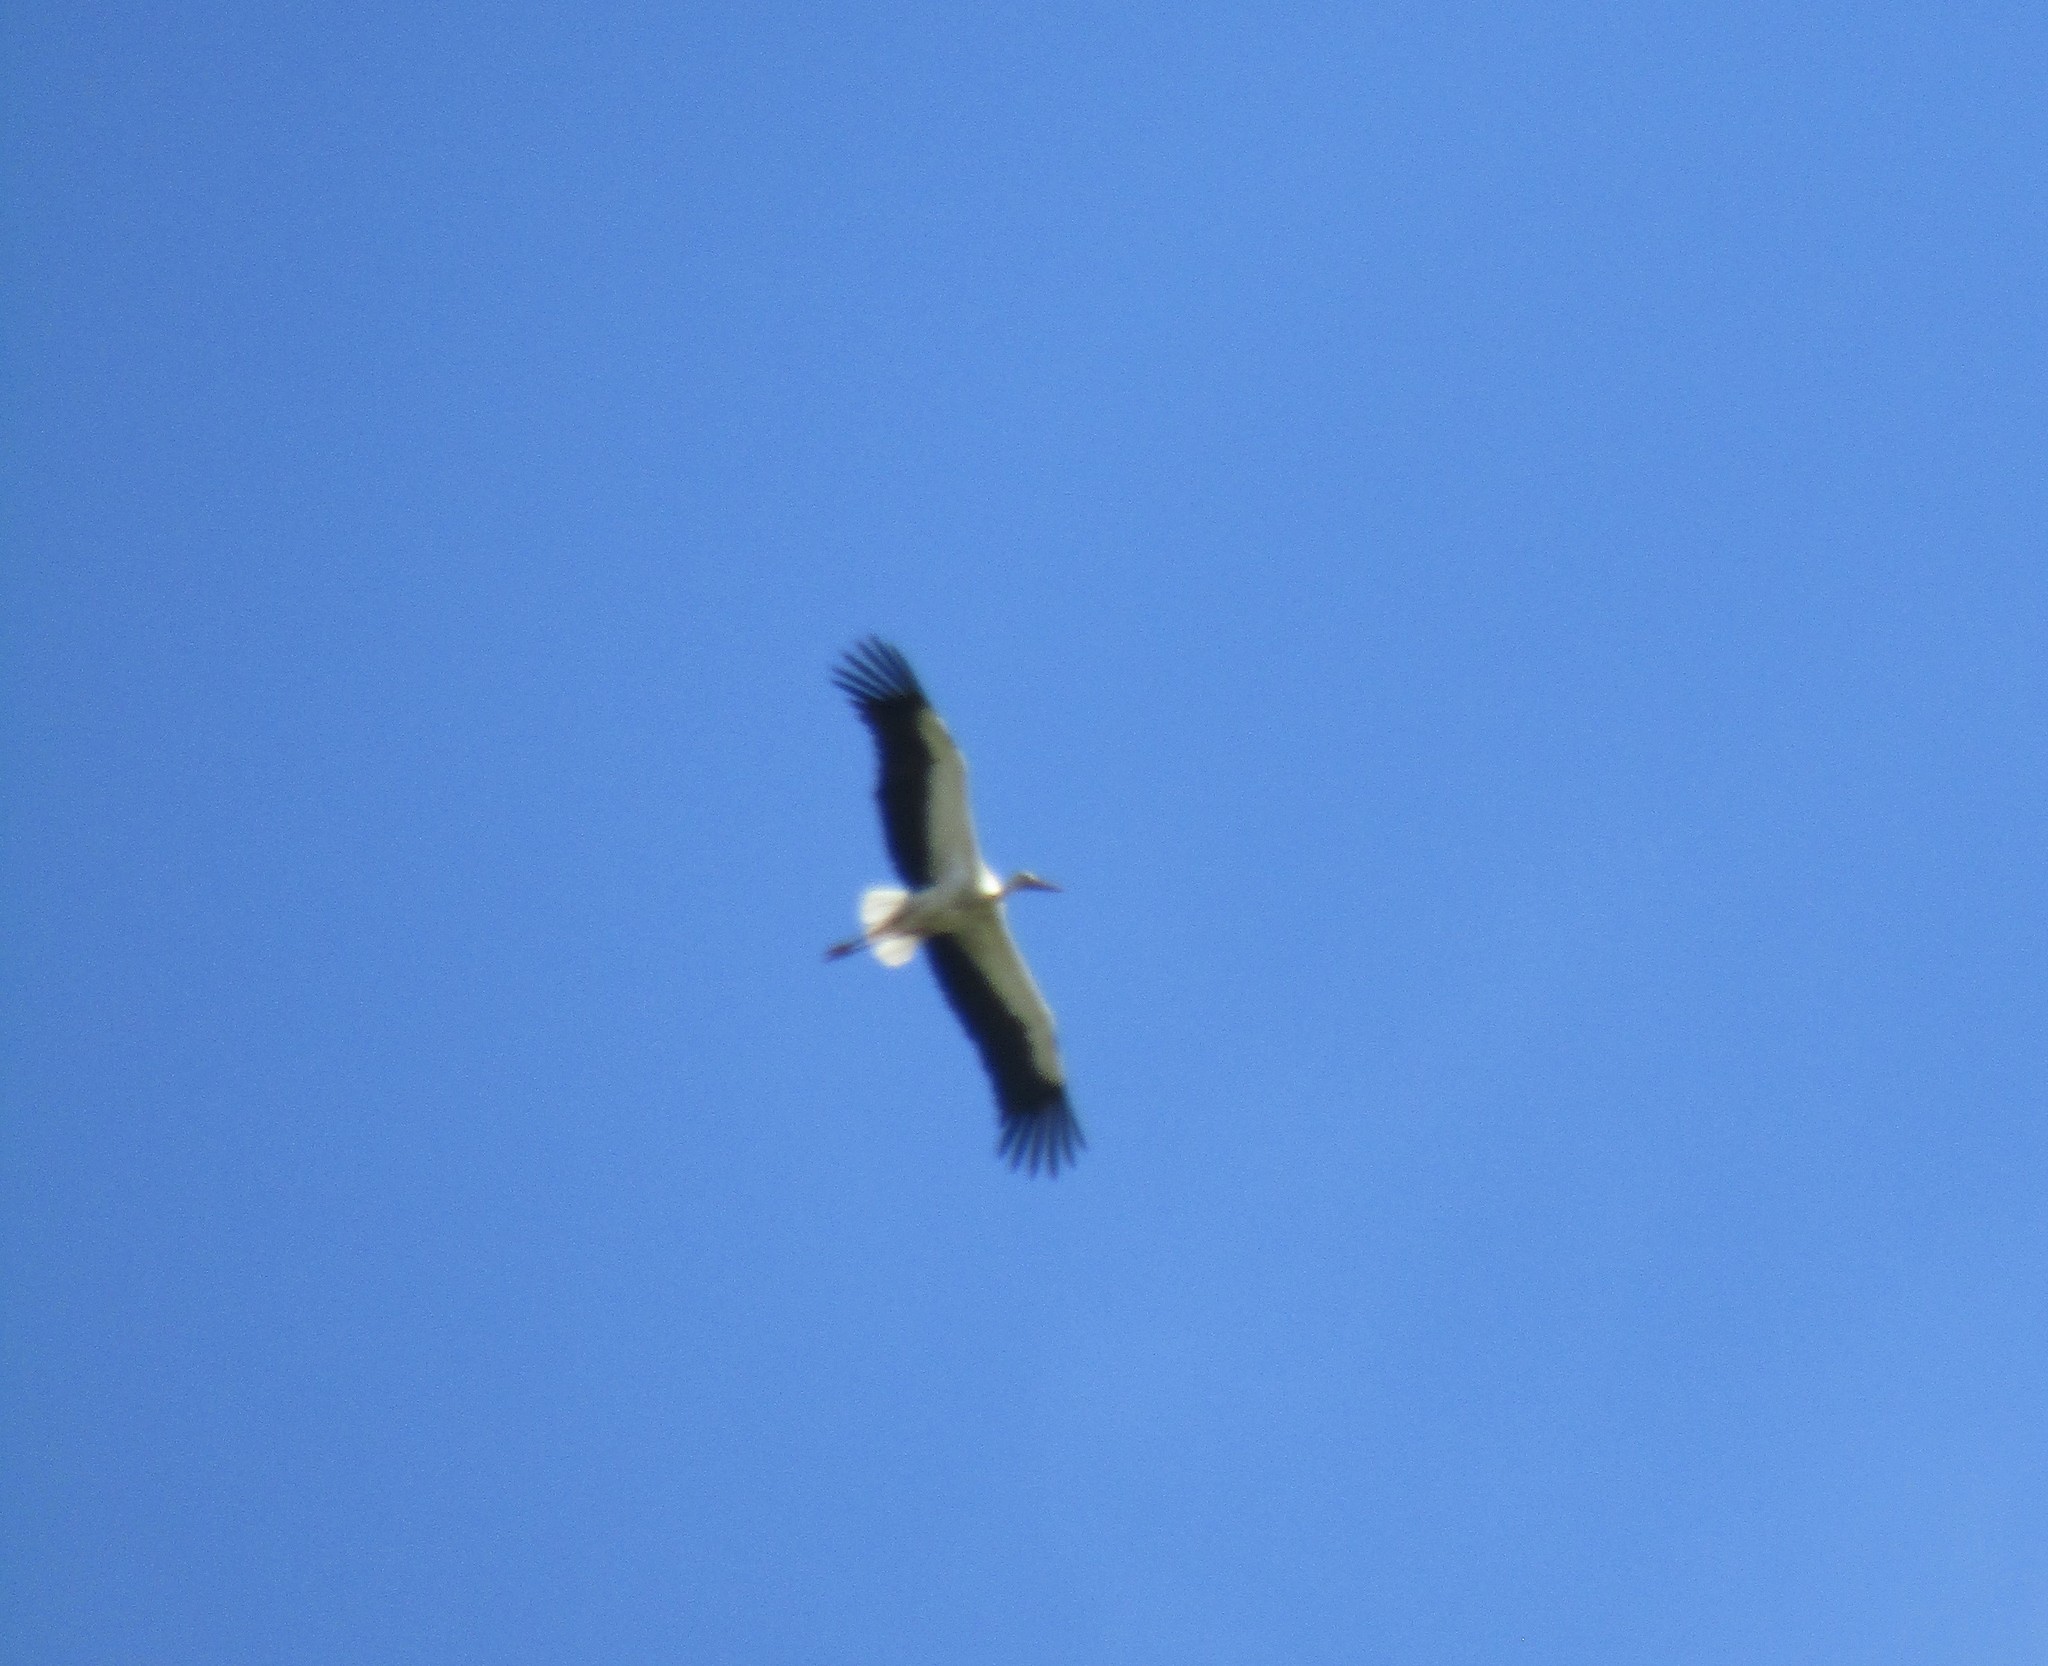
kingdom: Animalia
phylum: Chordata
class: Aves
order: Ciconiiformes
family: Ciconiidae
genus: Ciconia
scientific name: Ciconia ciconia
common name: White stork
